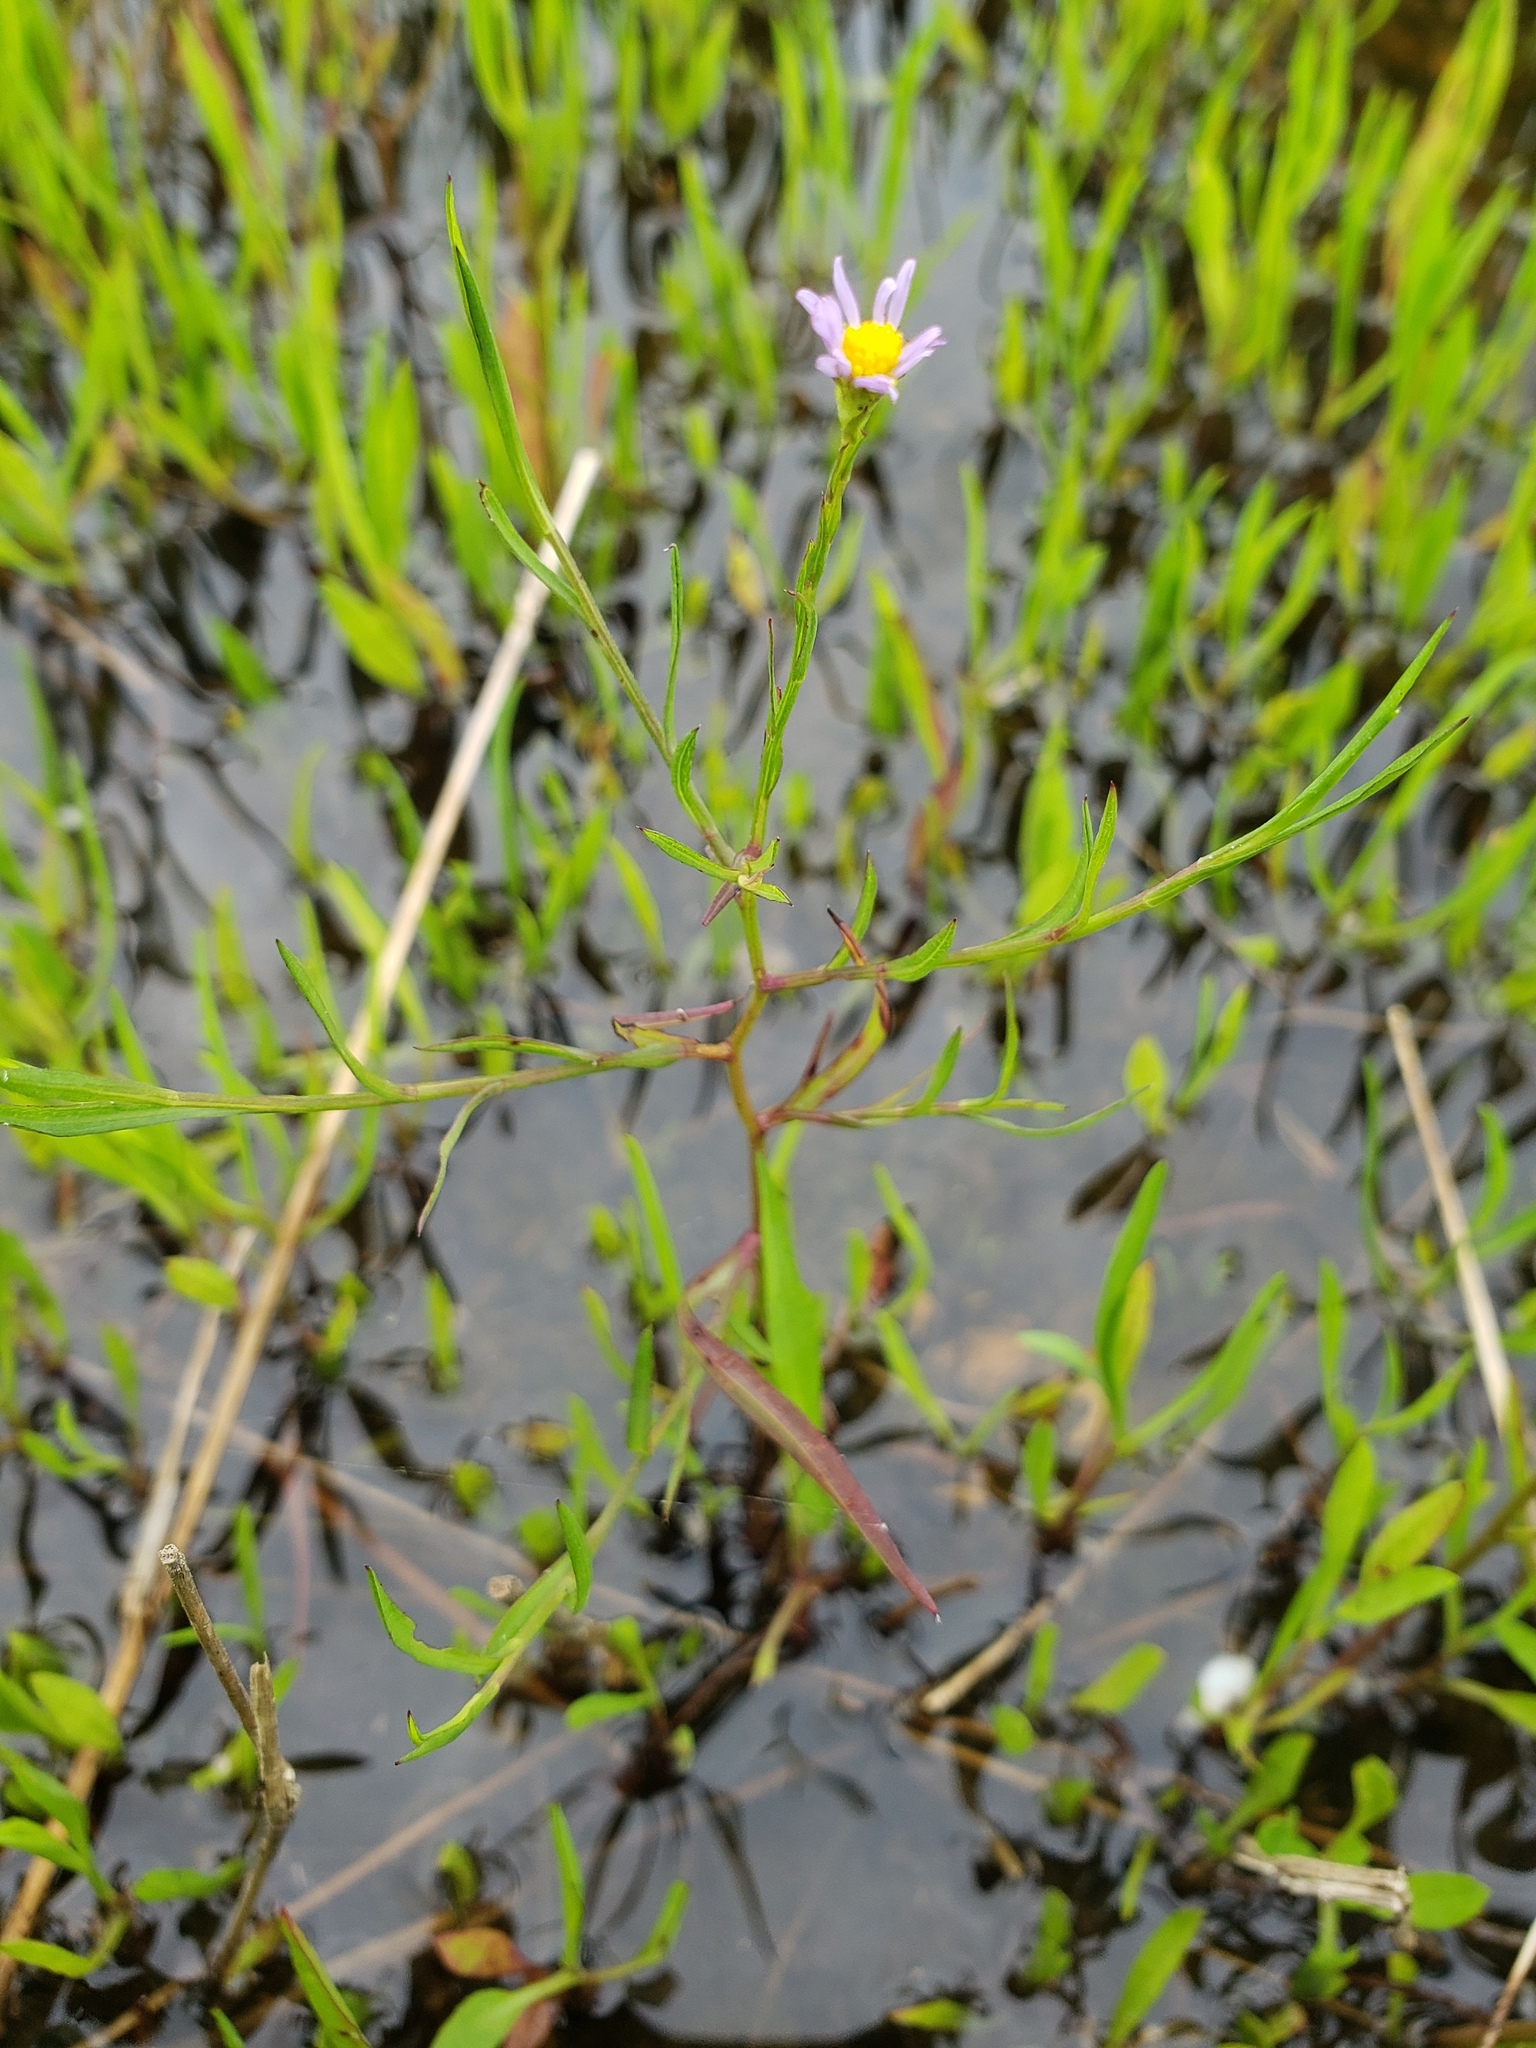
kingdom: Plantae
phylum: Tracheophyta
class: Magnoliopsida
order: Asterales
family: Asteraceae
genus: Symphyotrichum
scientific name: Symphyotrichum divaricatum
